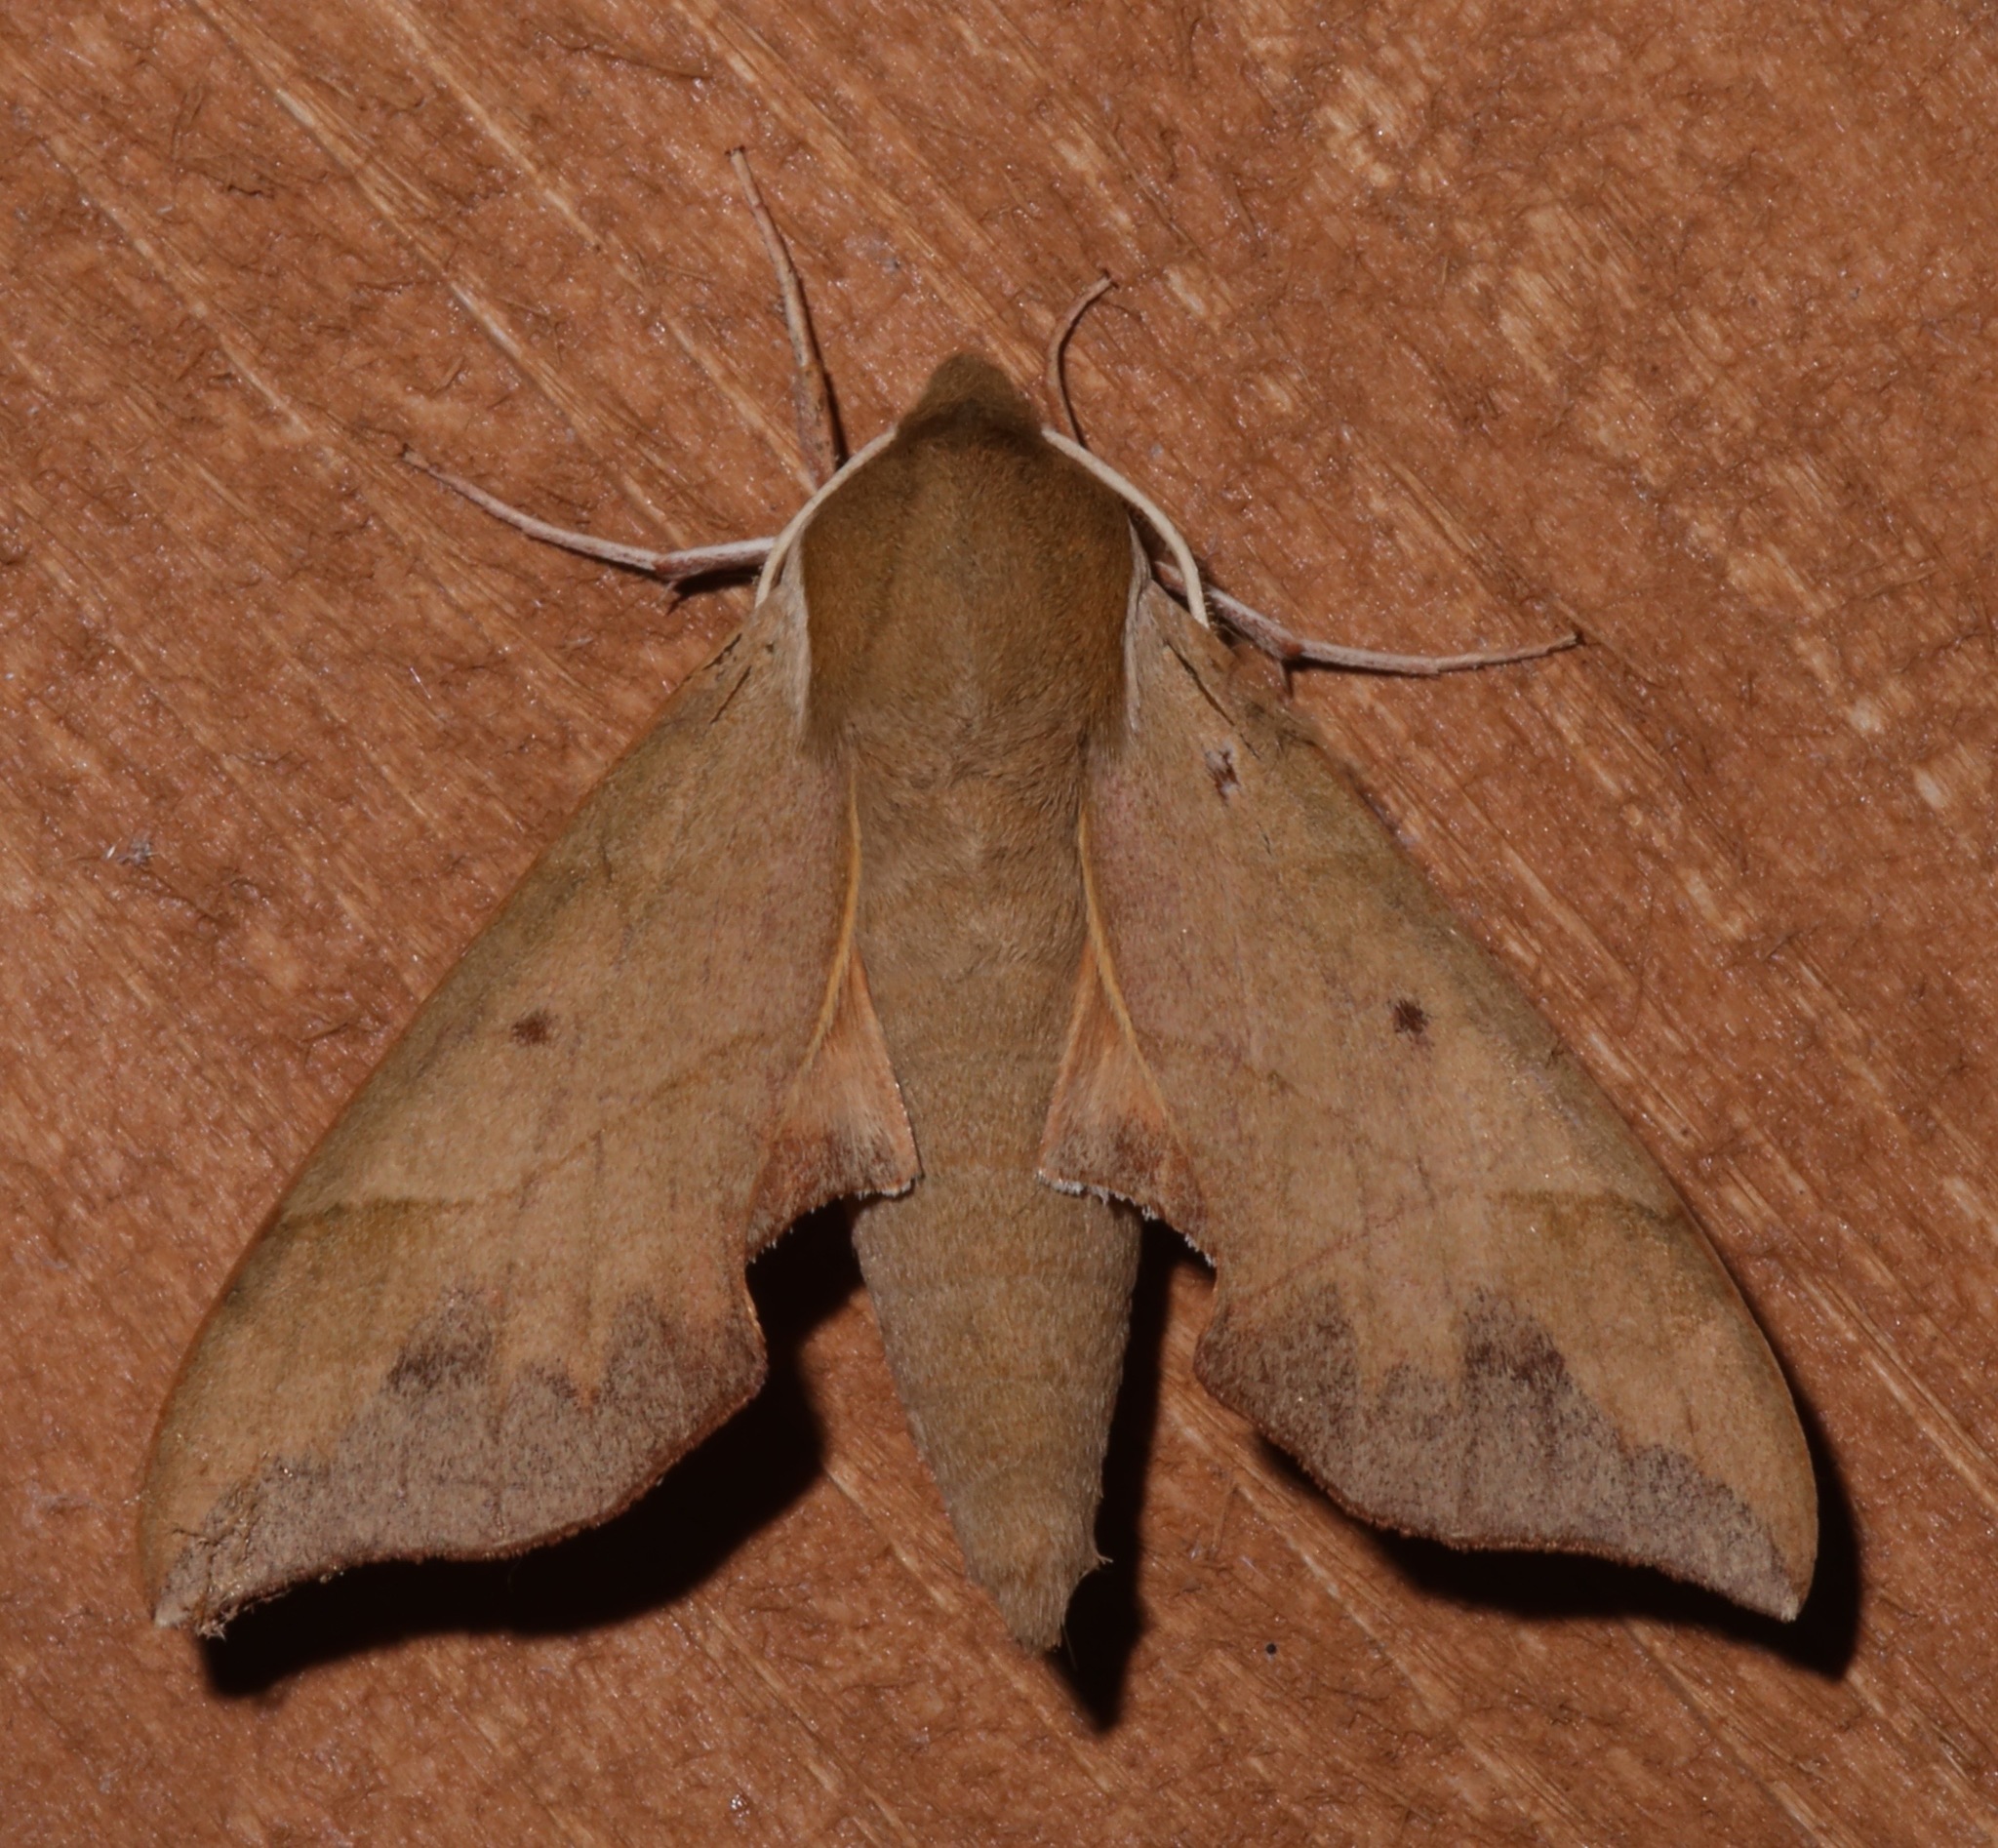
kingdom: Animalia
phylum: Arthropoda
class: Insecta
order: Lepidoptera
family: Sphingidae
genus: Darapsa
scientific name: Darapsa myron
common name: Hog sphinx
